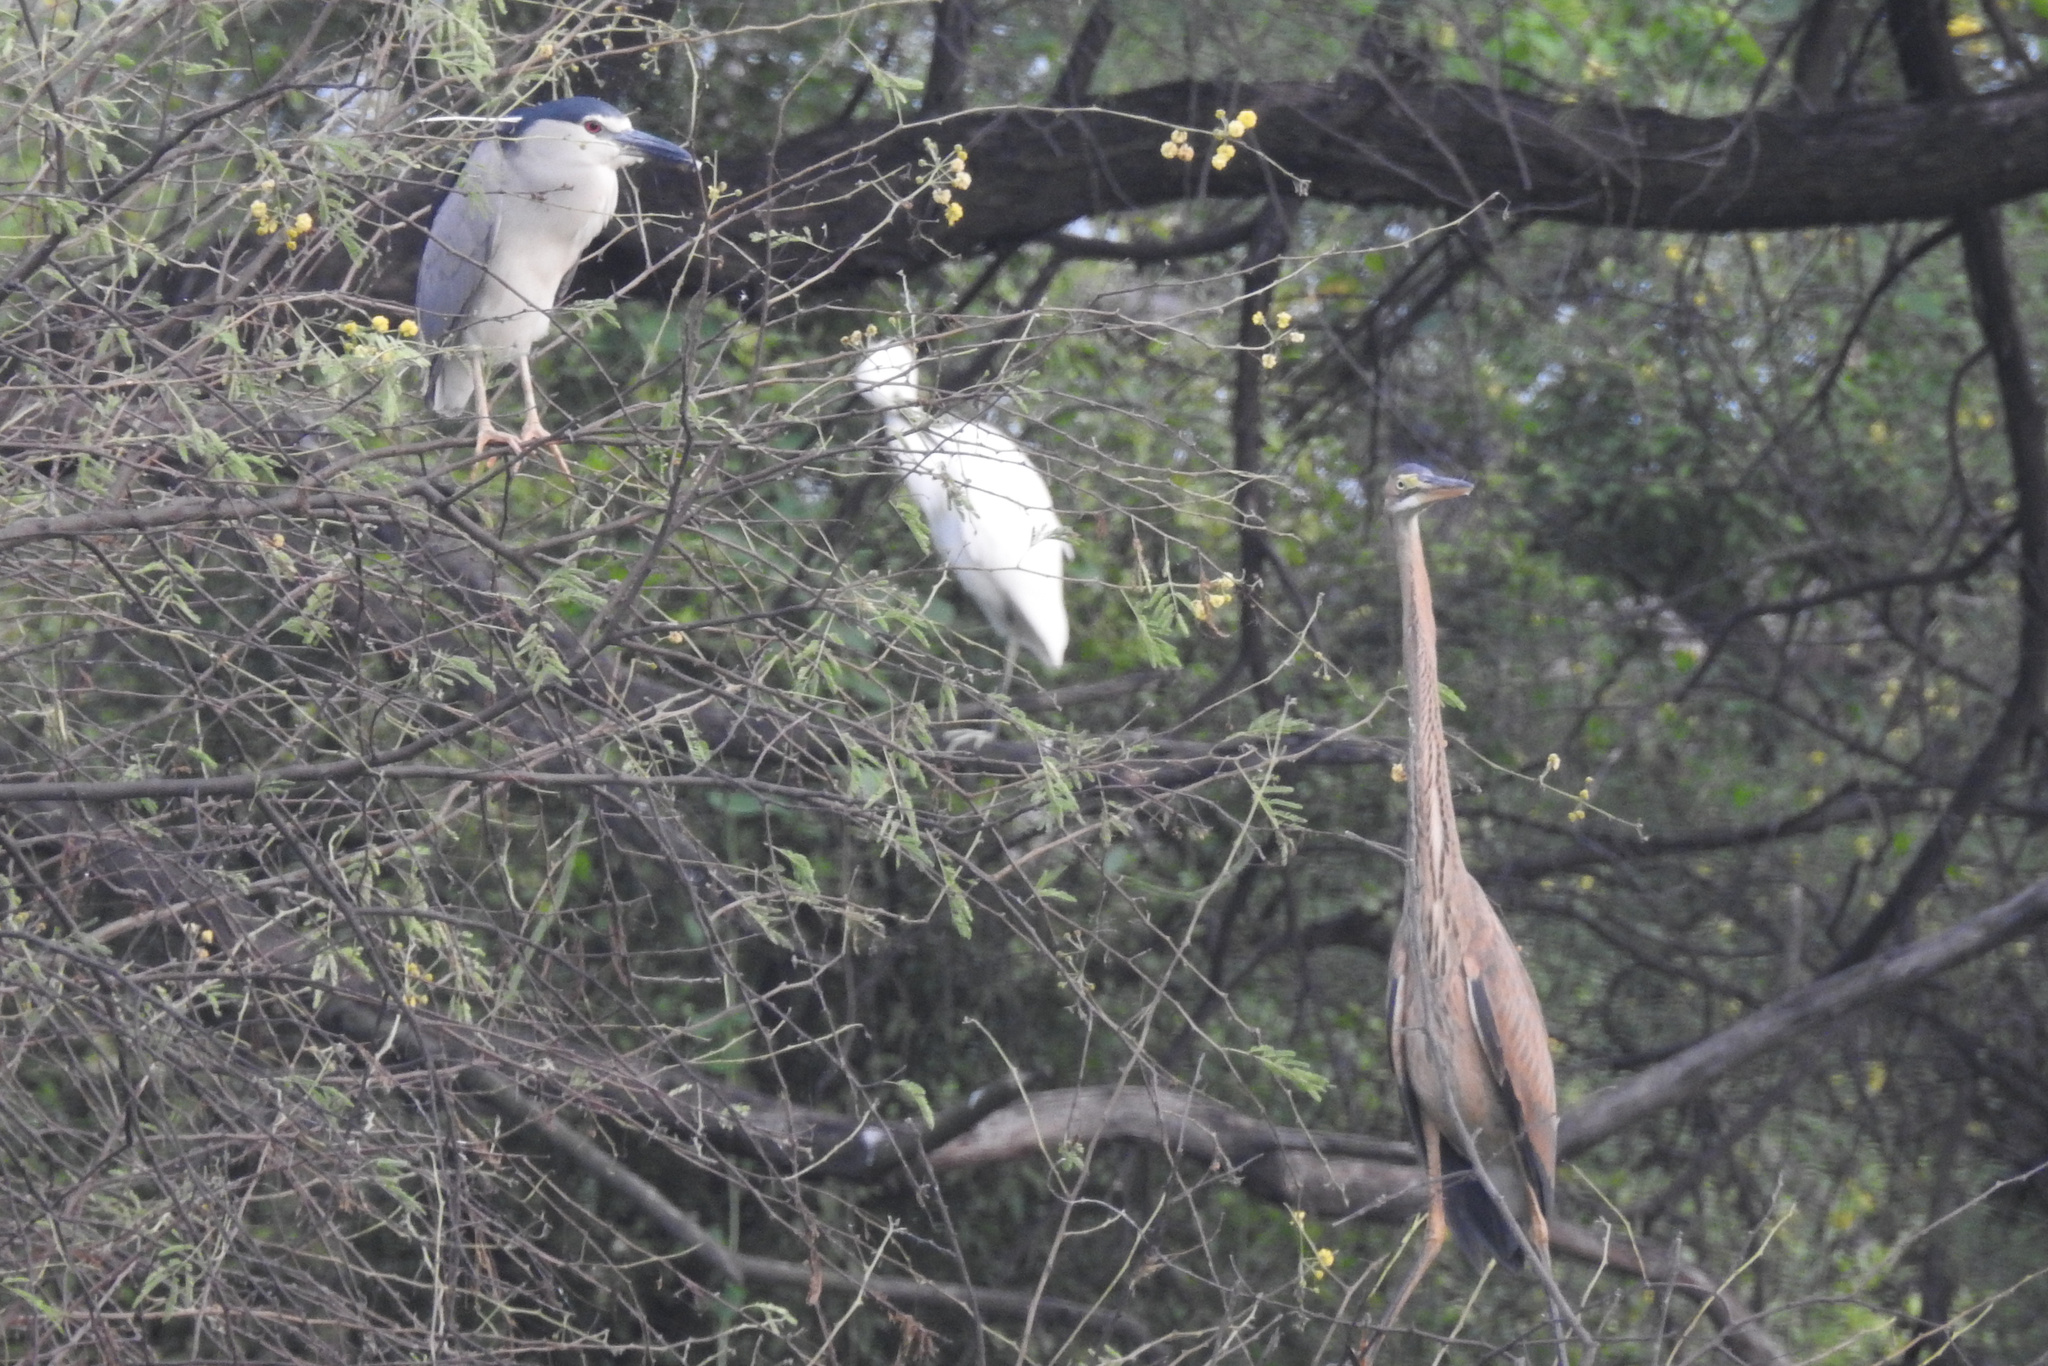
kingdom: Animalia
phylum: Chordata
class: Aves
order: Pelecaniformes
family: Ardeidae
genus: Ardea
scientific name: Ardea purpurea
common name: Purple heron
